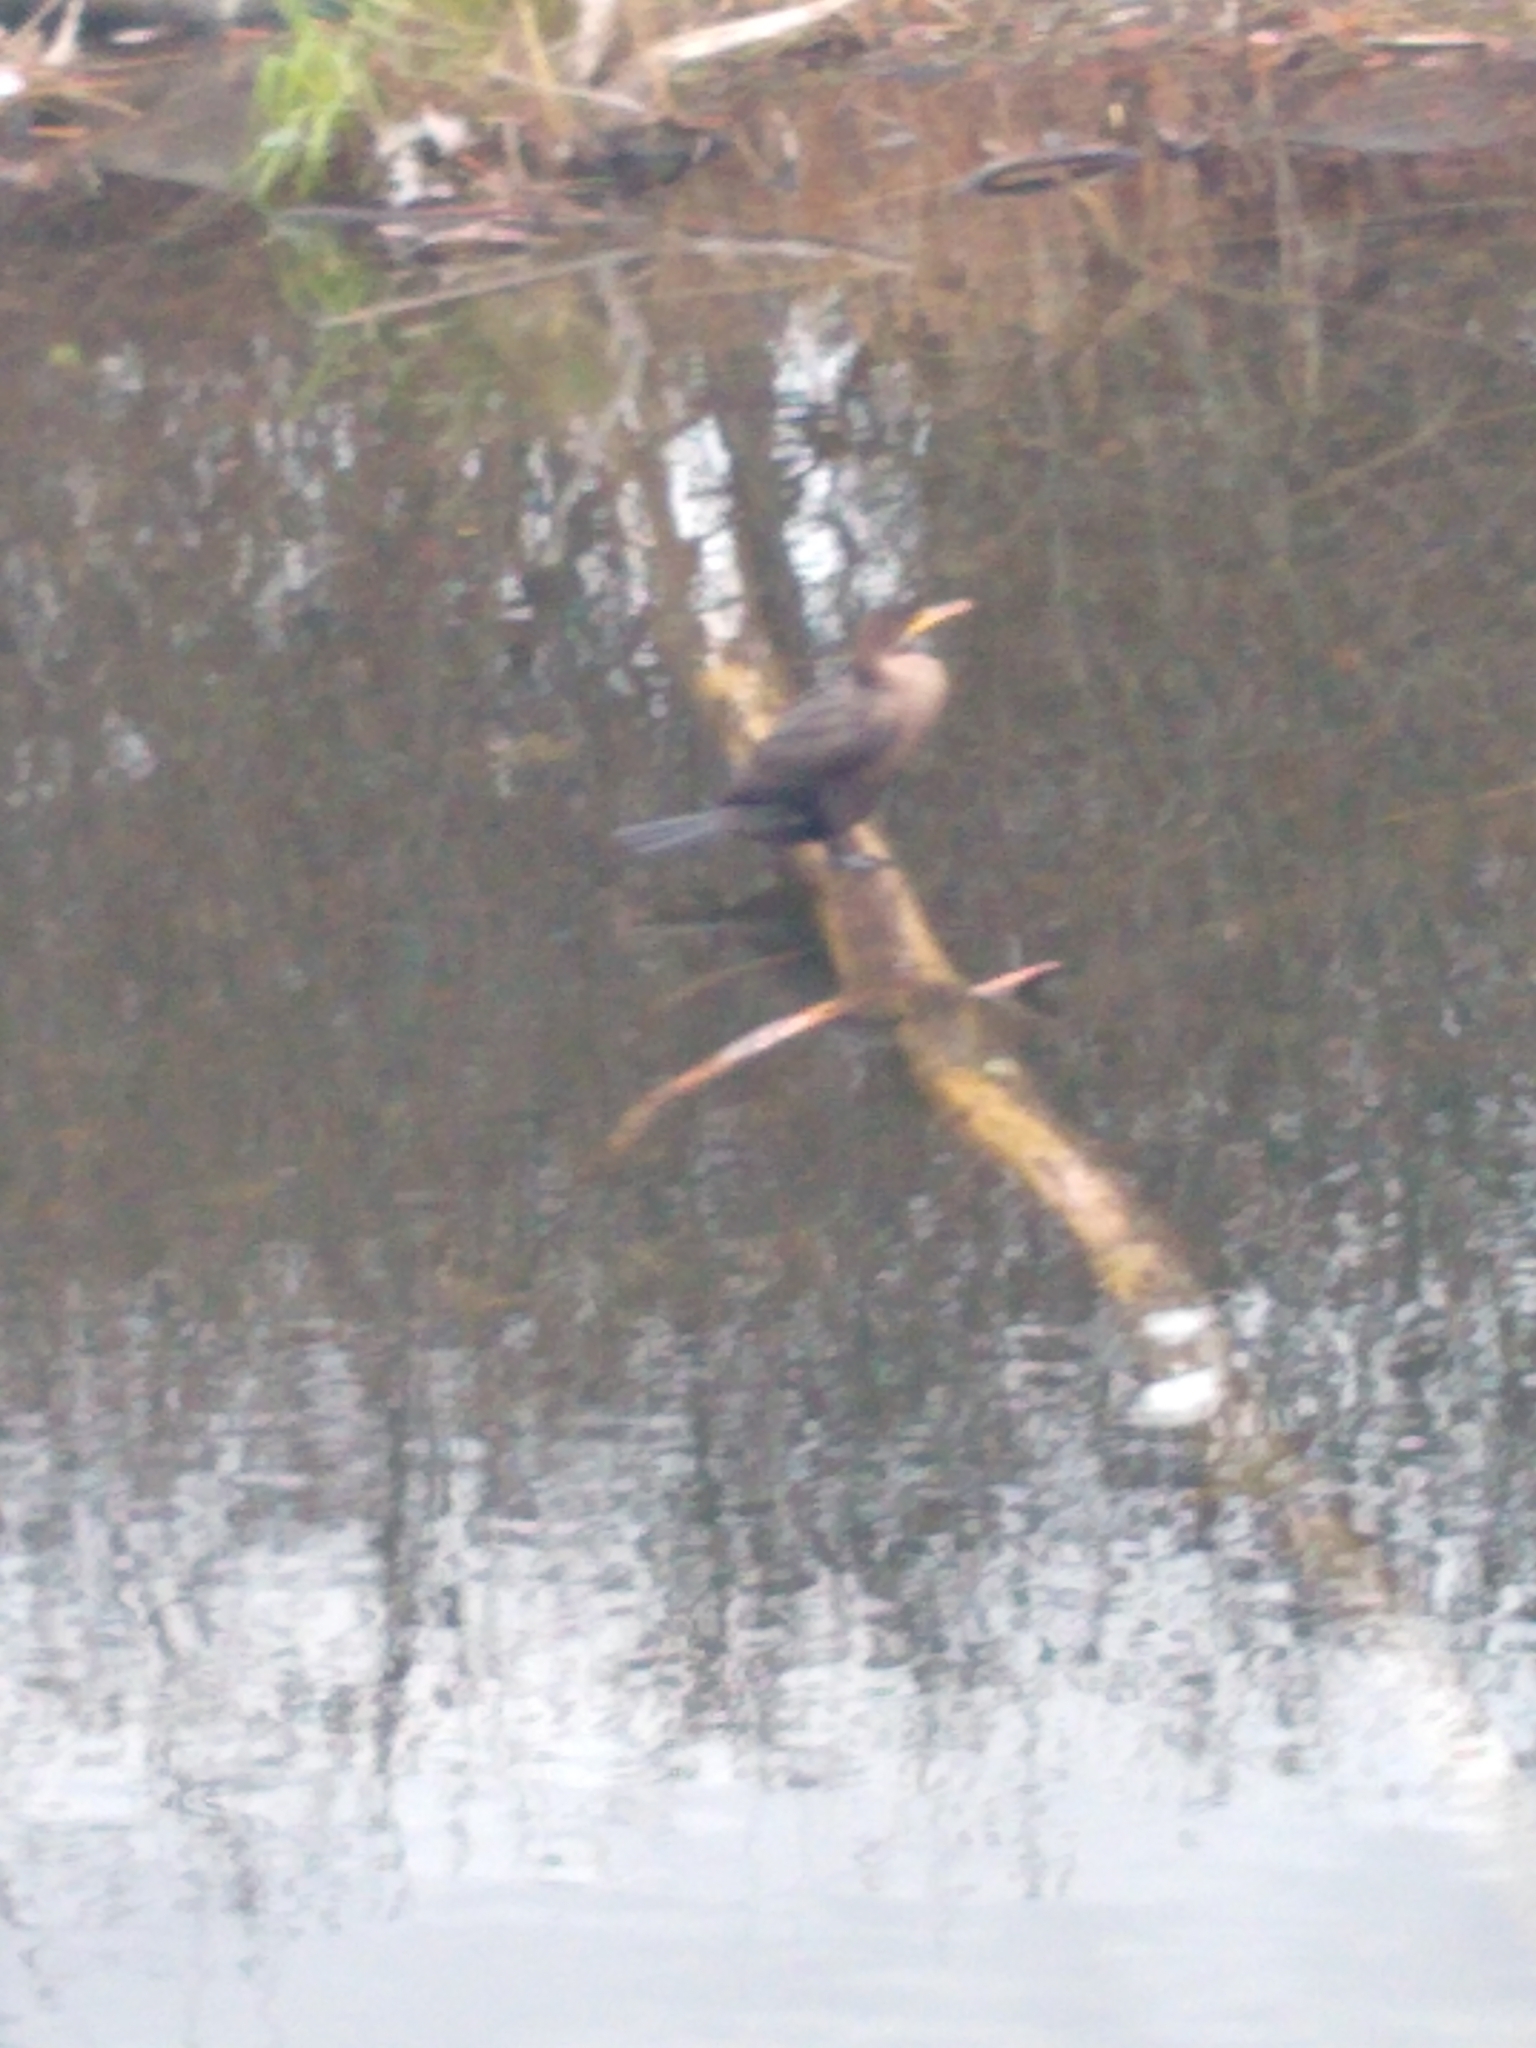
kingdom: Animalia
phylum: Chordata
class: Aves
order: Suliformes
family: Phalacrocoracidae
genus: Phalacrocorax
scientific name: Phalacrocorax auritus
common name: Double-crested cormorant
